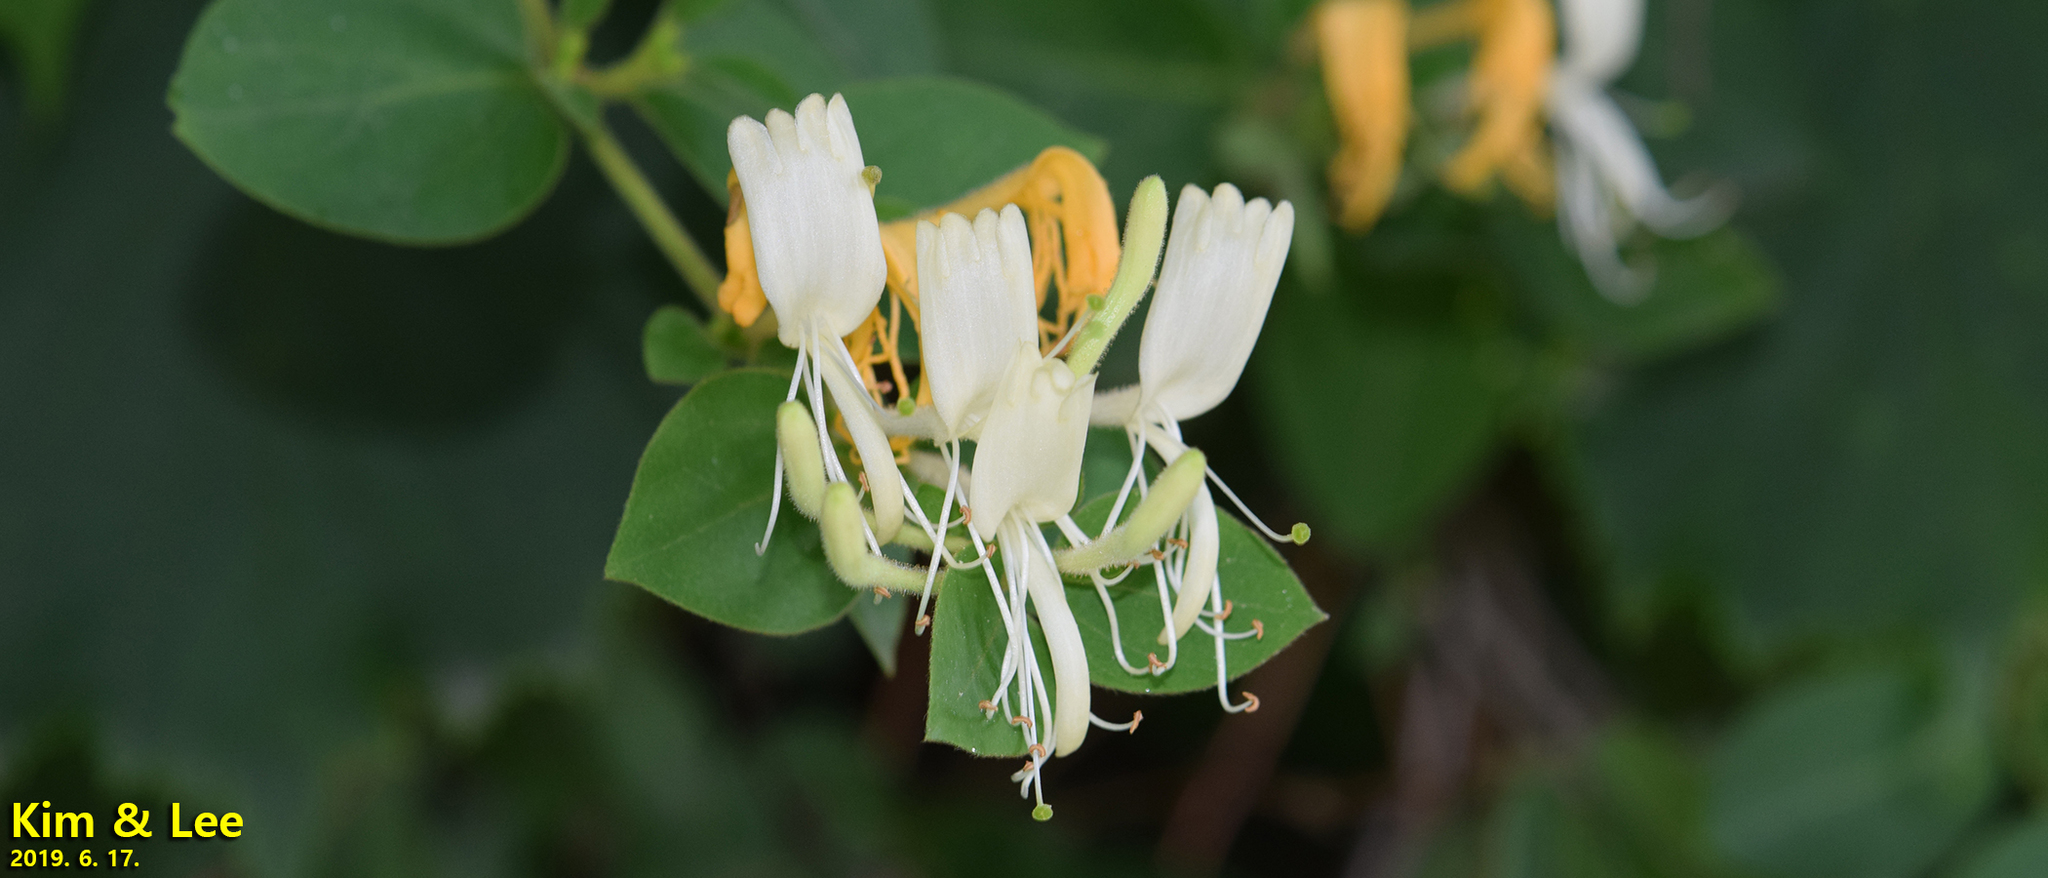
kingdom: Plantae
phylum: Tracheophyta
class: Magnoliopsida
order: Dipsacales
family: Caprifoliaceae
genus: Lonicera
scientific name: Lonicera japonica
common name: Japanese honeysuckle
